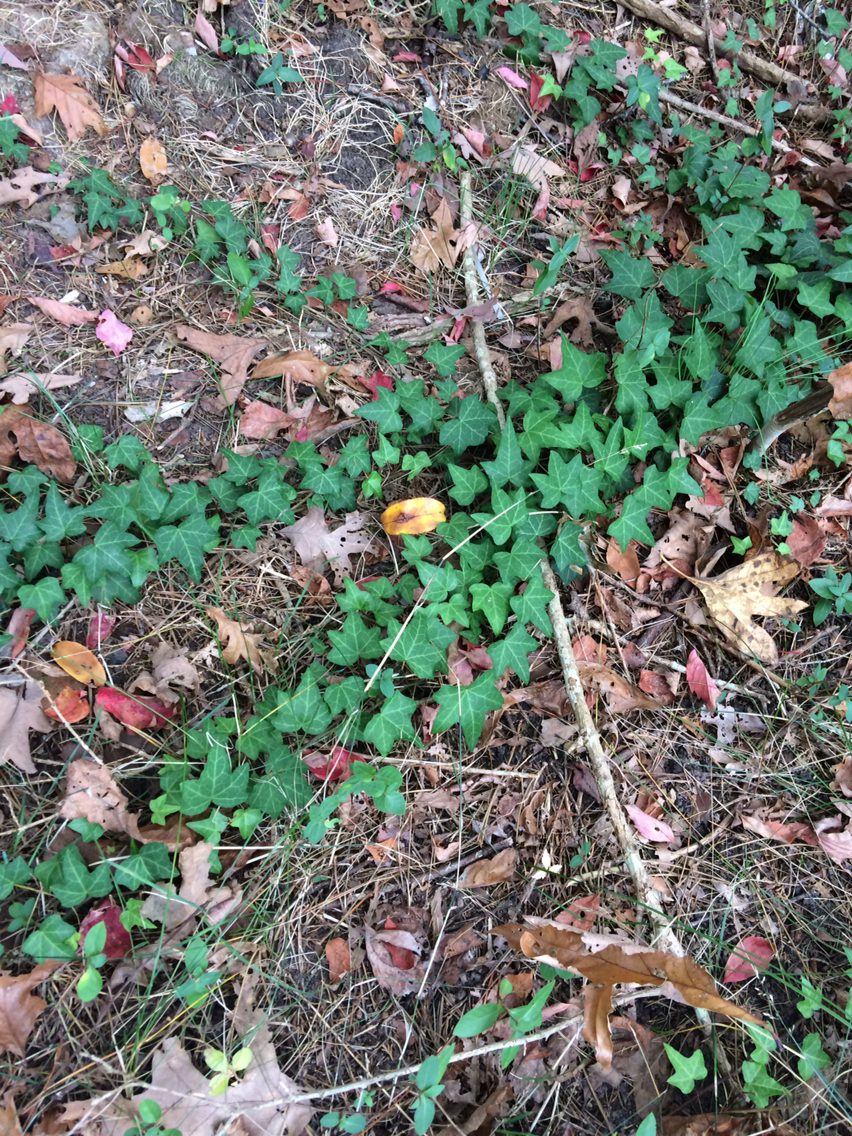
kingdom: Plantae
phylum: Tracheophyta
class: Magnoliopsida
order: Apiales
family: Araliaceae
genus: Hedera
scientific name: Hedera helix
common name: Ivy
